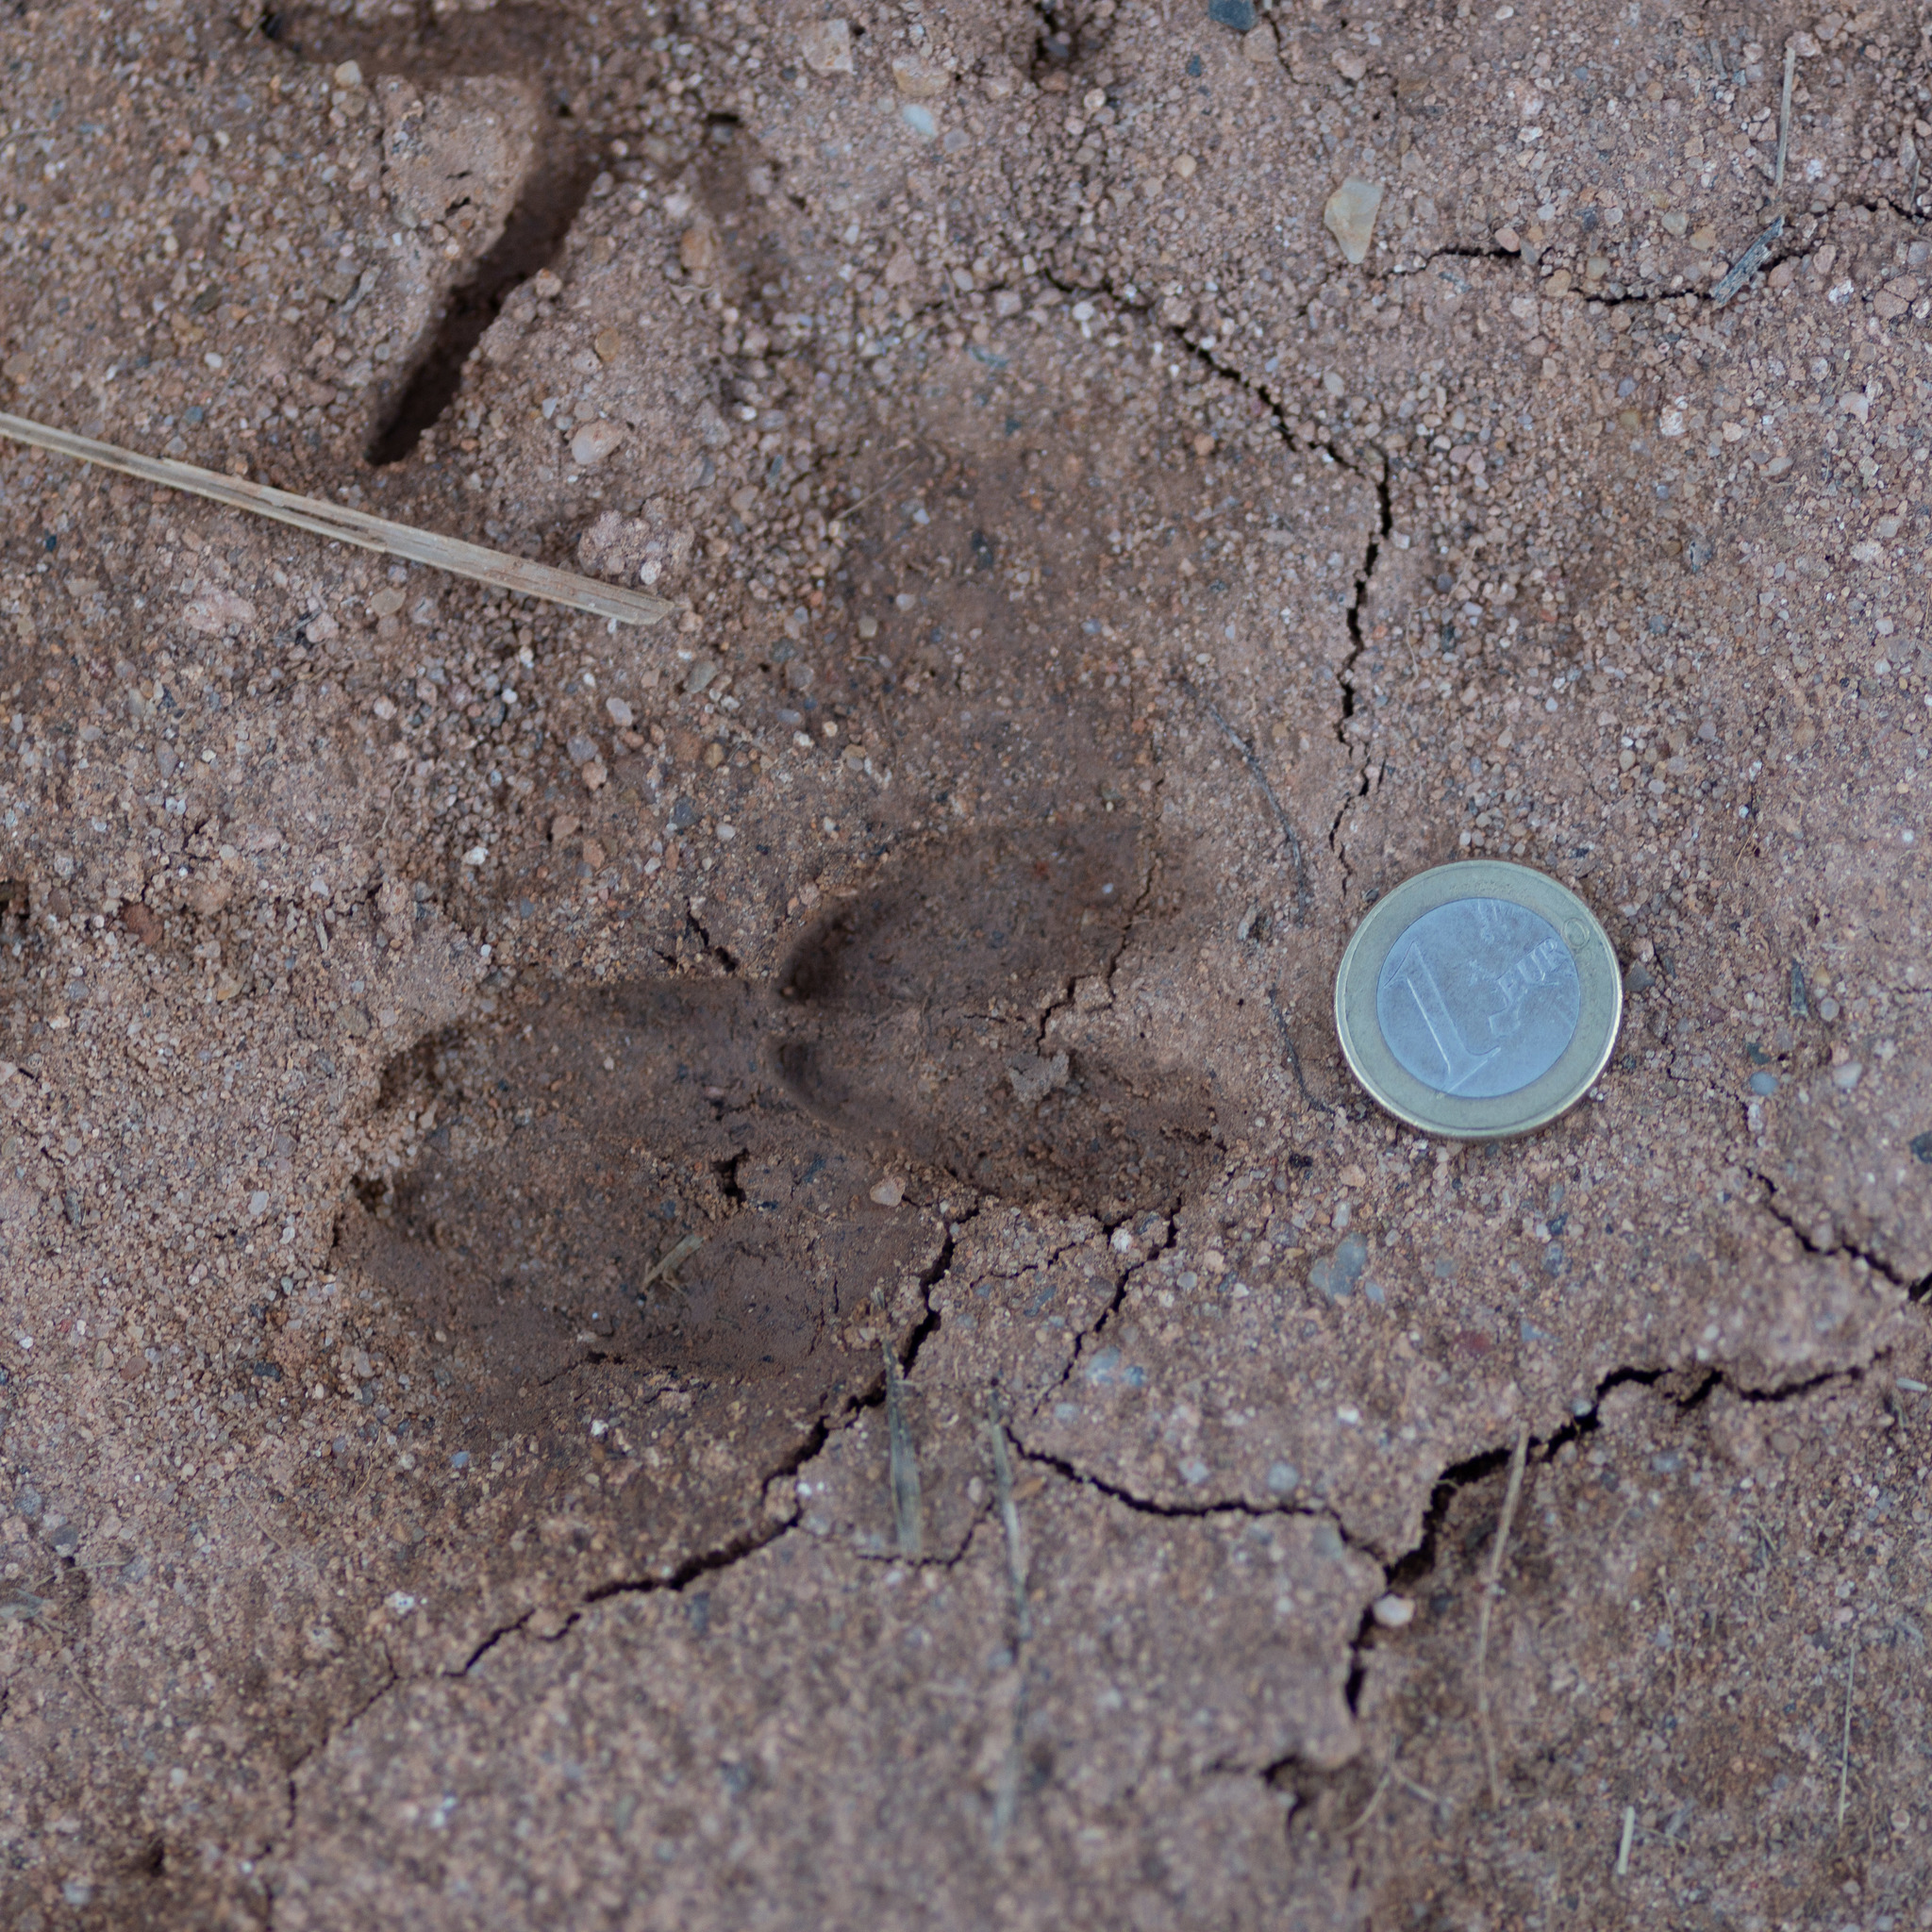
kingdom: Animalia
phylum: Chordata
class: Mammalia
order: Artiodactyla
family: Cervidae
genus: Capreolus
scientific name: Capreolus capreolus
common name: Western roe deer
